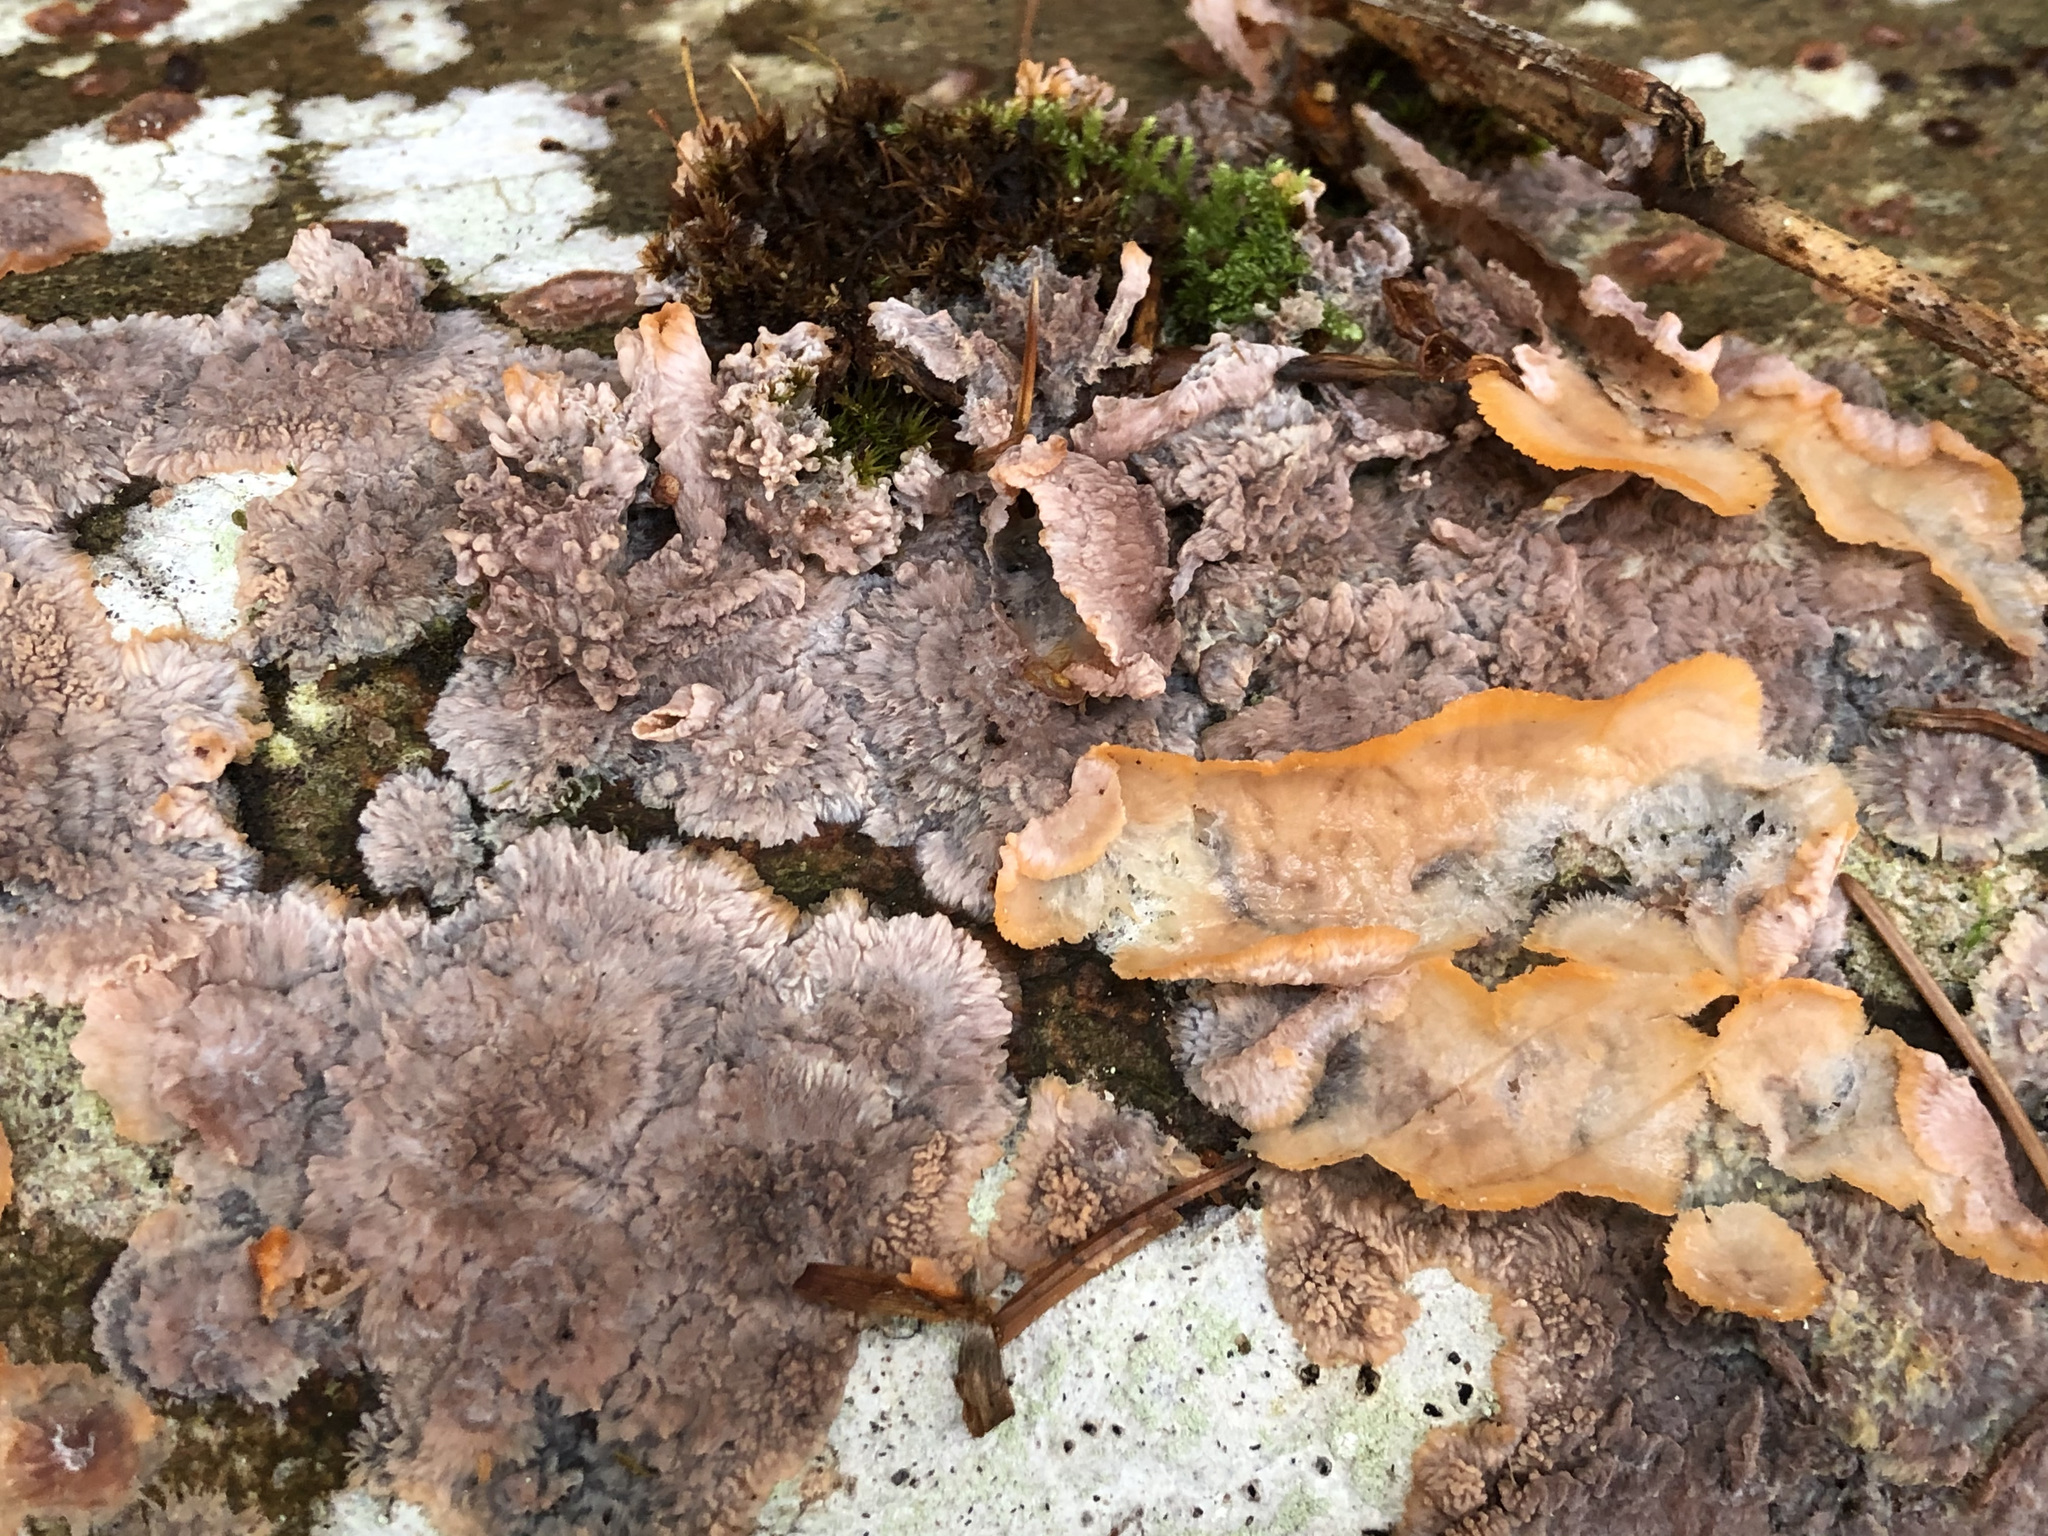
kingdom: Fungi
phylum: Basidiomycota
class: Agaricomycetes
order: Polyporales
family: Meruliaceae
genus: Phlebia
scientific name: Phlebia radiata
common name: Wrinkled crust
